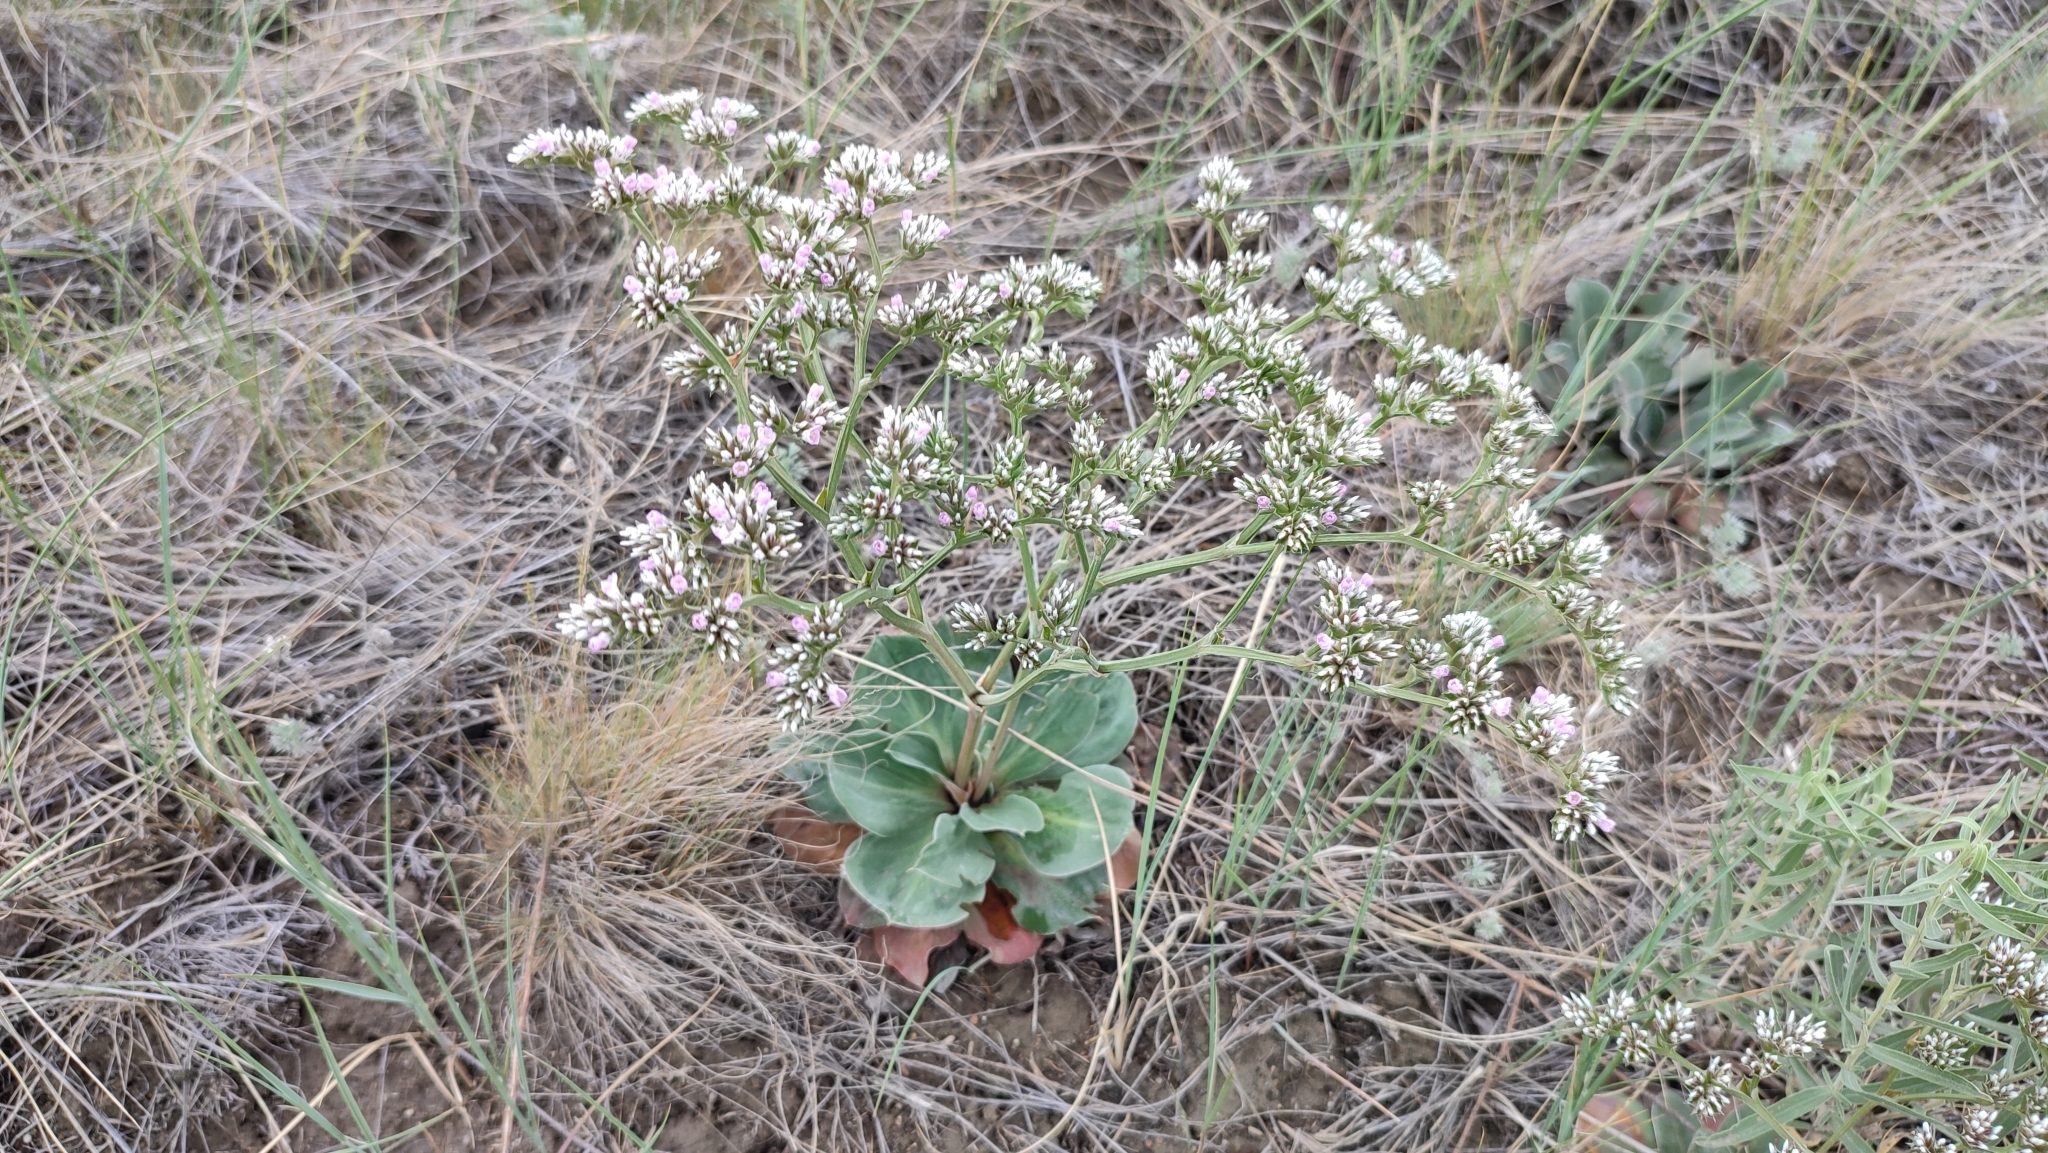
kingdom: Plantae
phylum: Tracheophyta
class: Magnoliopsida
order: Caryophyllales
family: Plumbaginaceae
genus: Goniolimon
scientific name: Goniolimon speciosum
